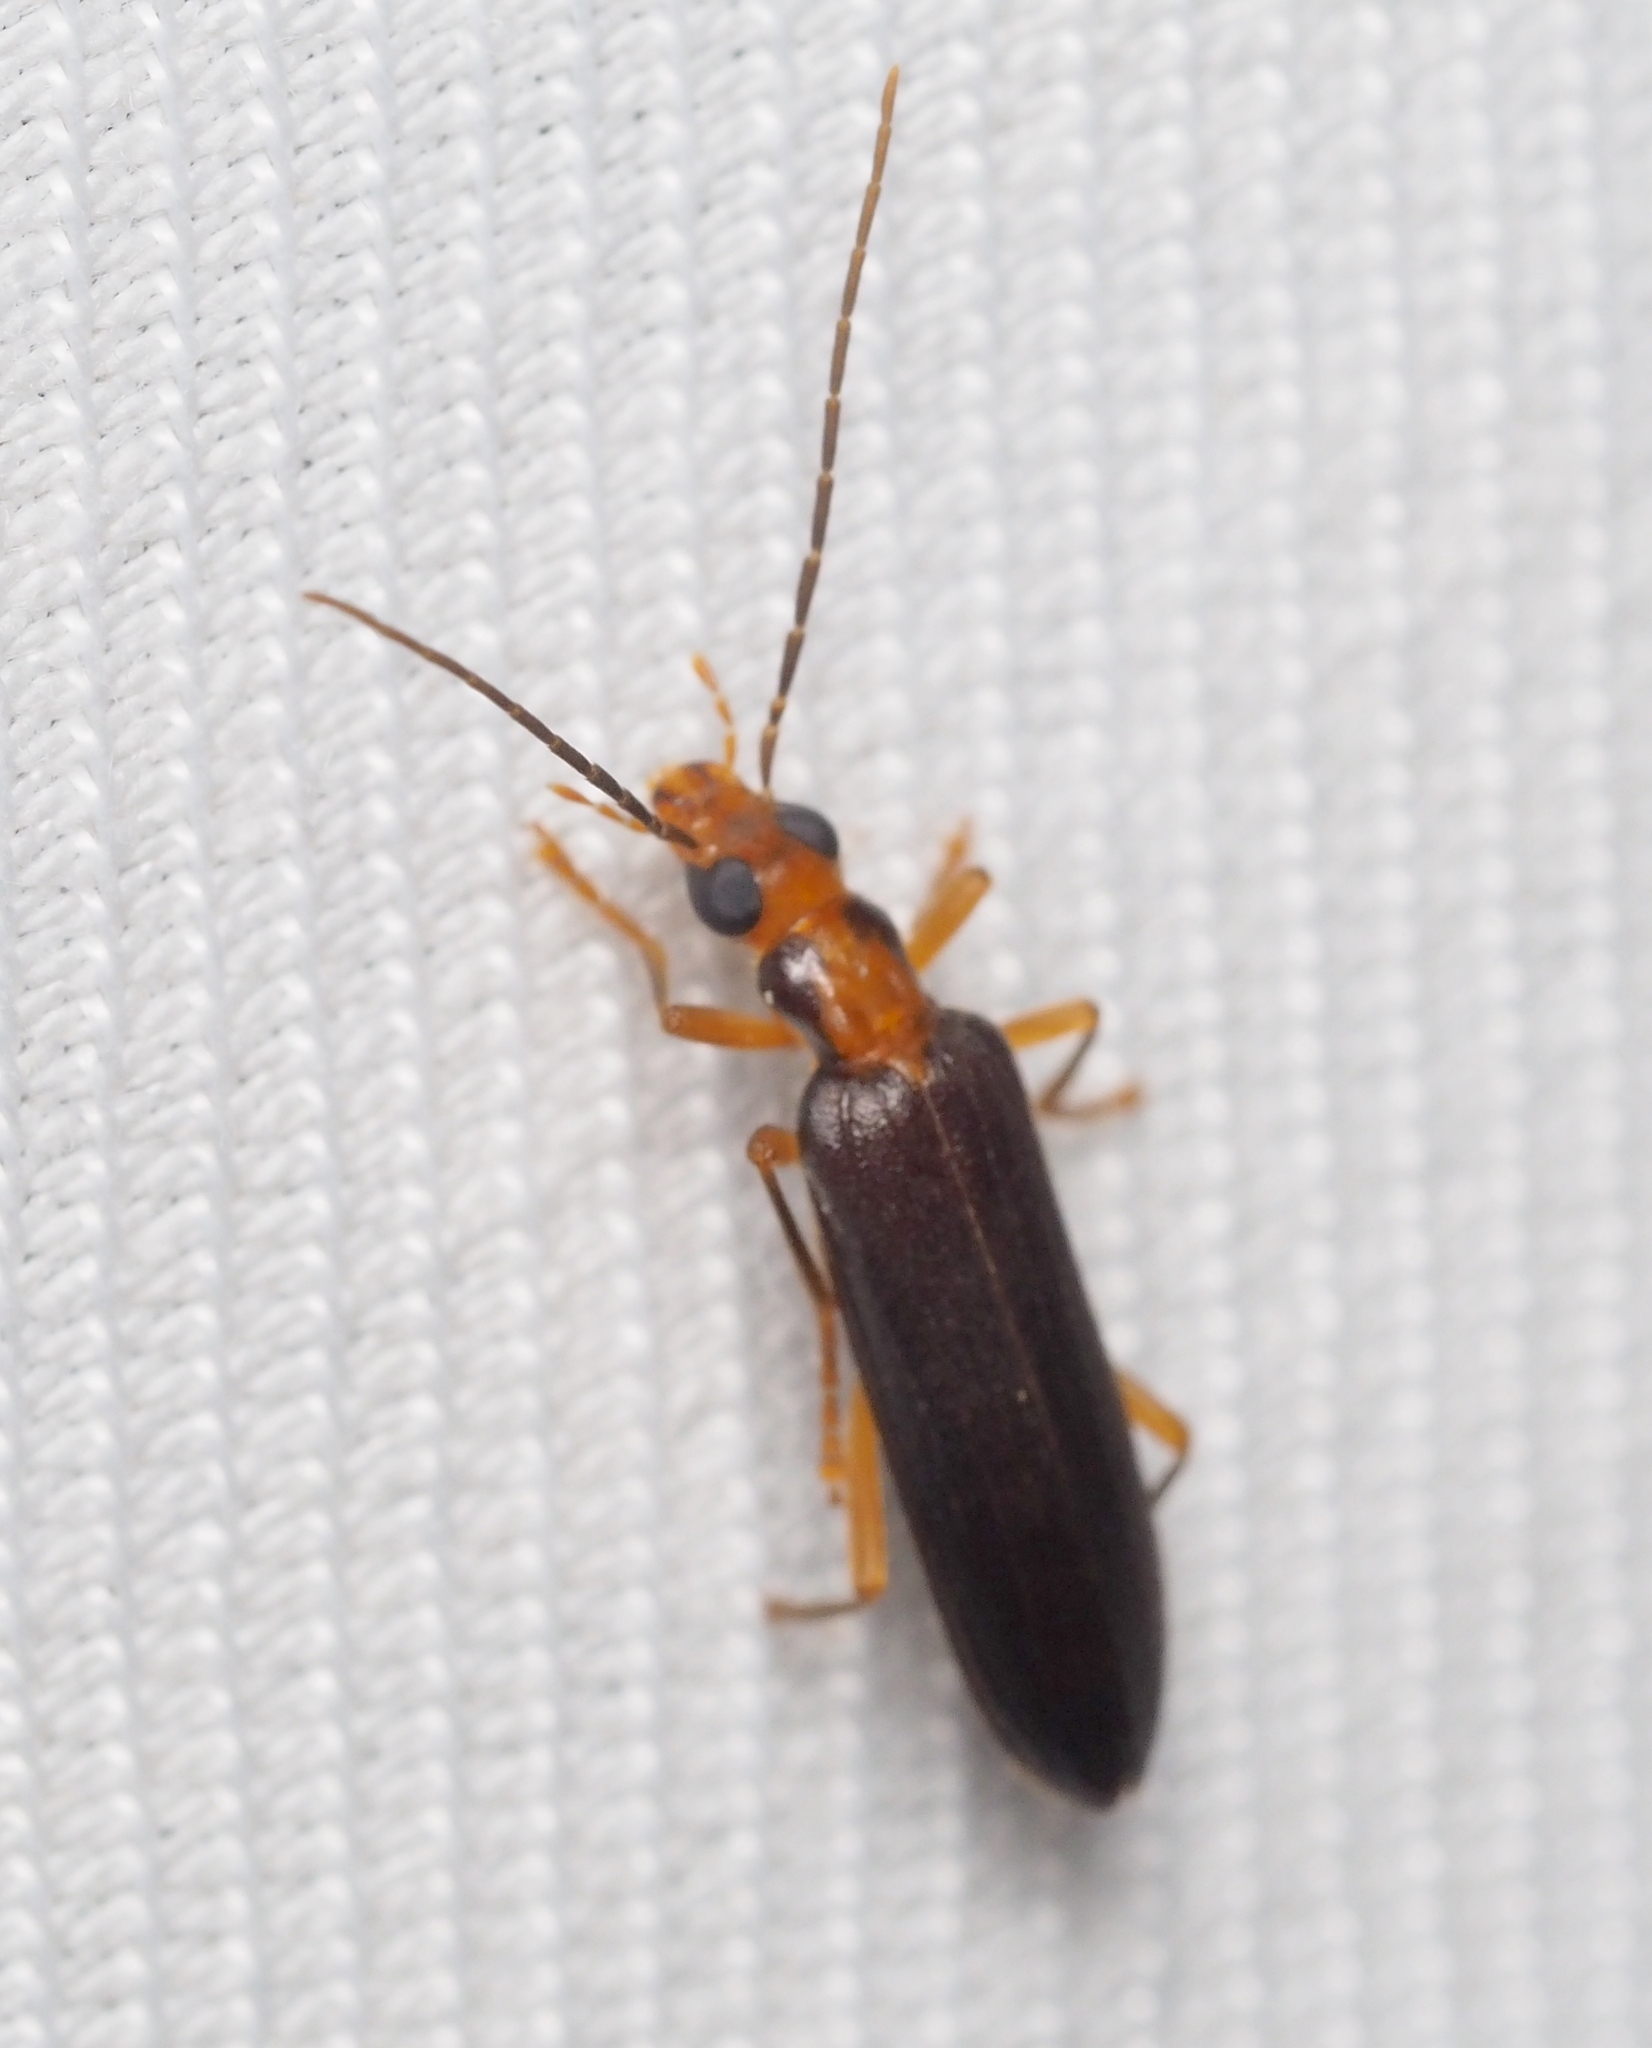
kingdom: Animalia
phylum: Arthropoda
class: Insecta
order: Coleoptera
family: Oedemeridae
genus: Nacerdes
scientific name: Nacerdes carniolica
